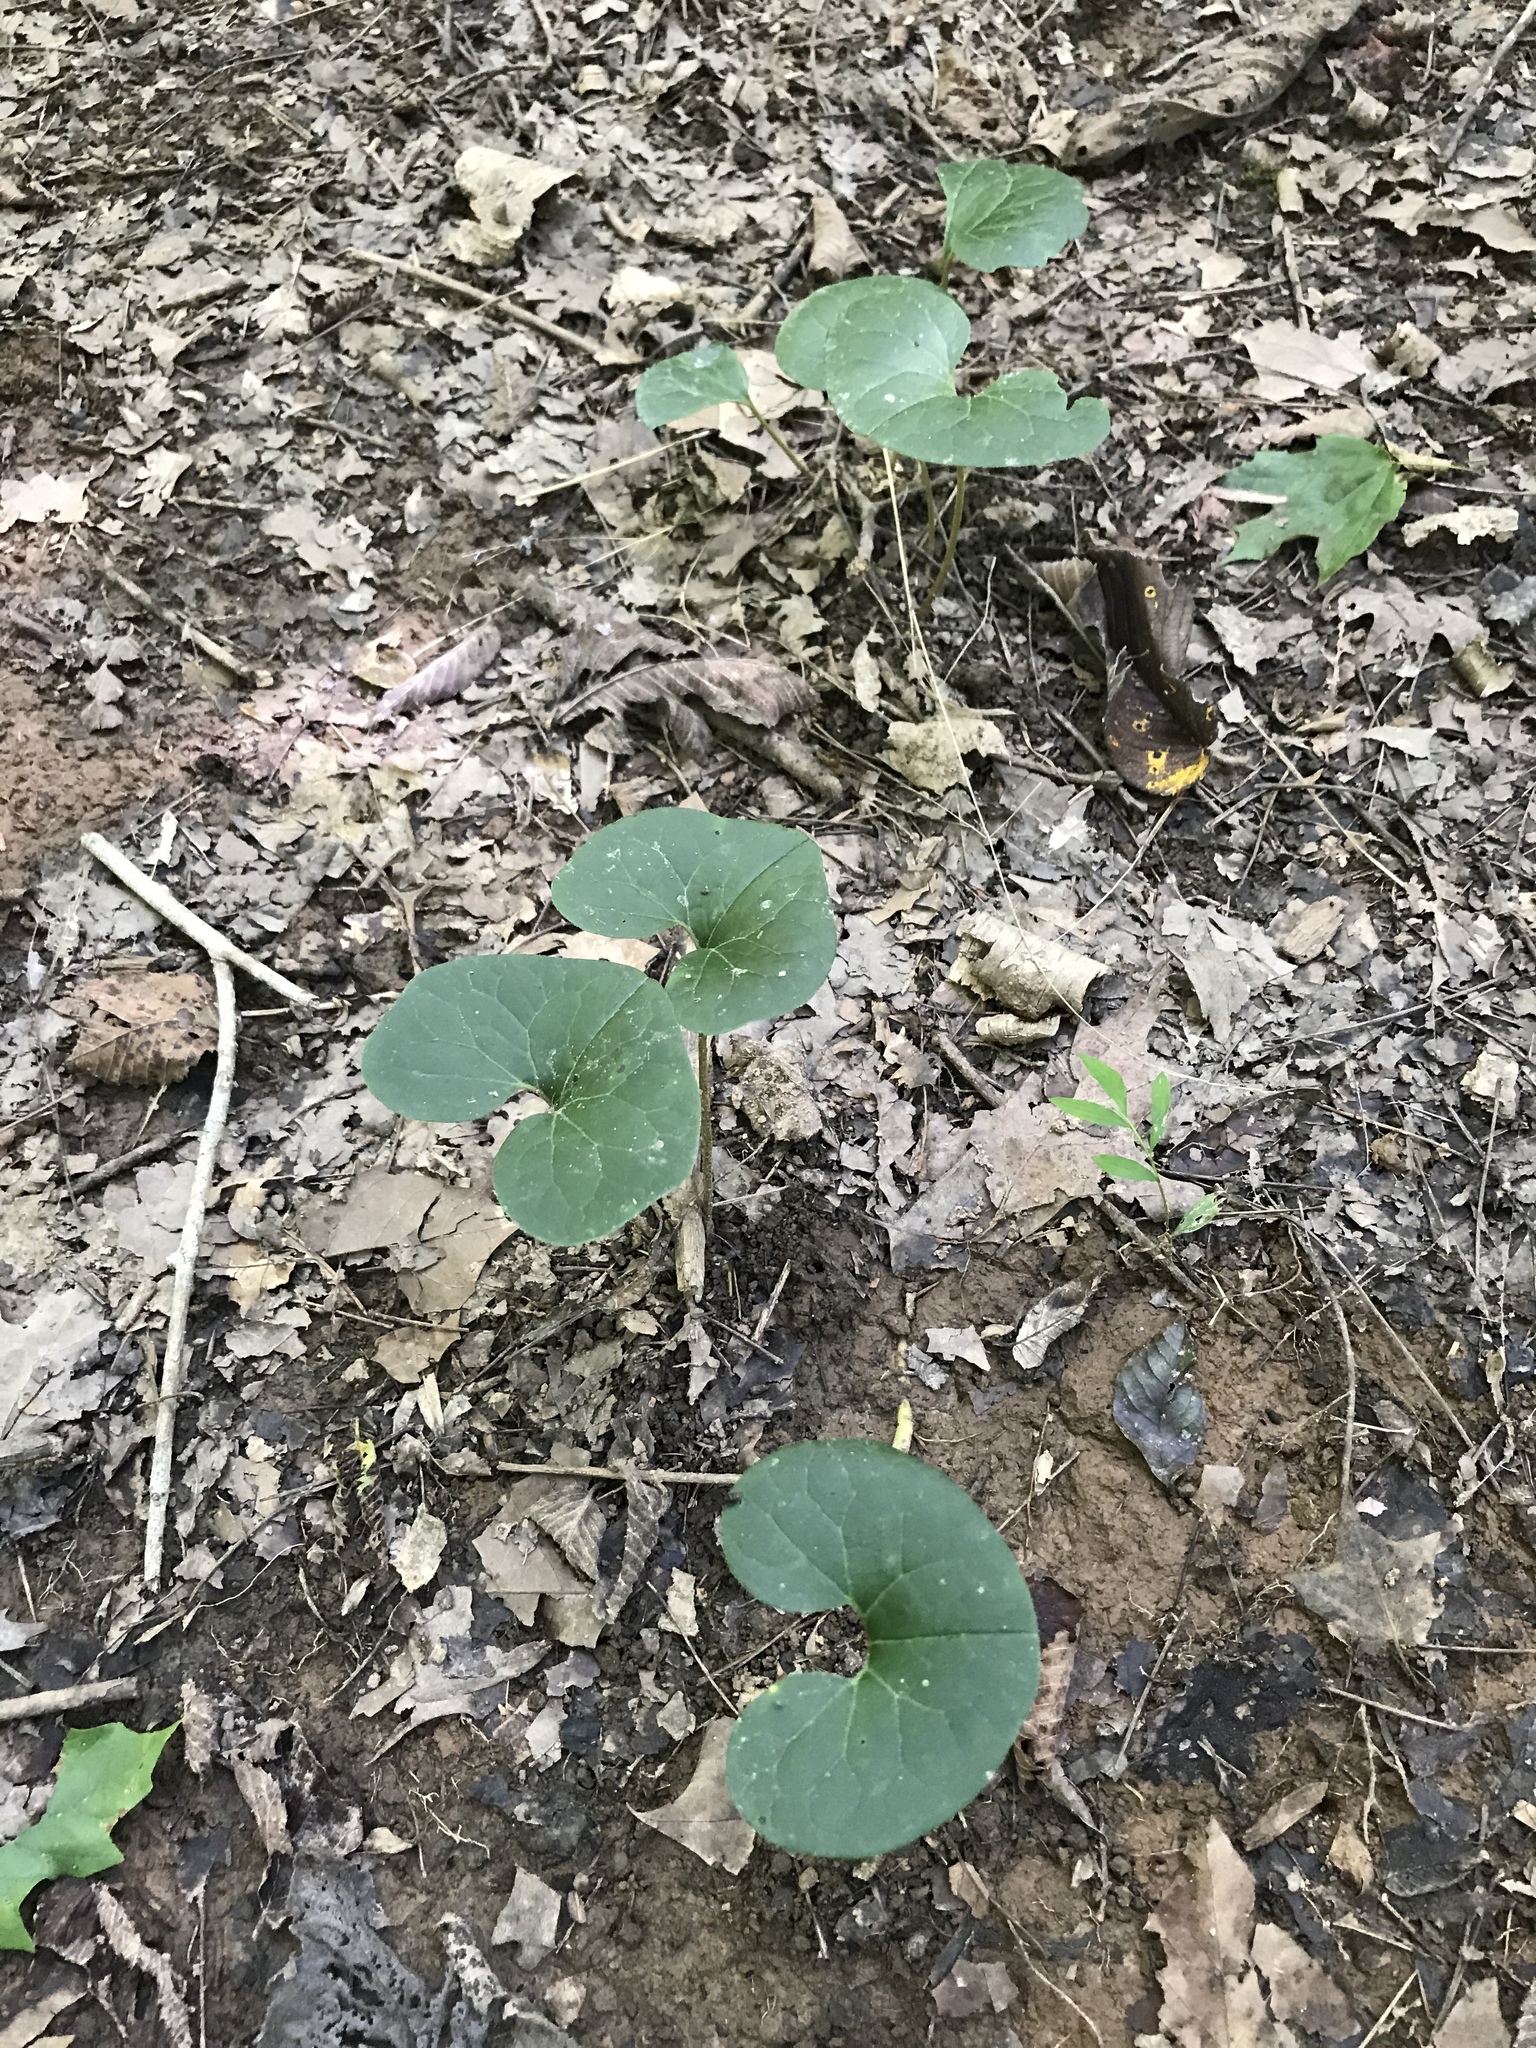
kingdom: Plantae
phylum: Tracheophyta
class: Magnoliopsida
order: Piperales
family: Aristolochiaceae
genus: Asarum
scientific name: Asarum canadense
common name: Wild ginger
